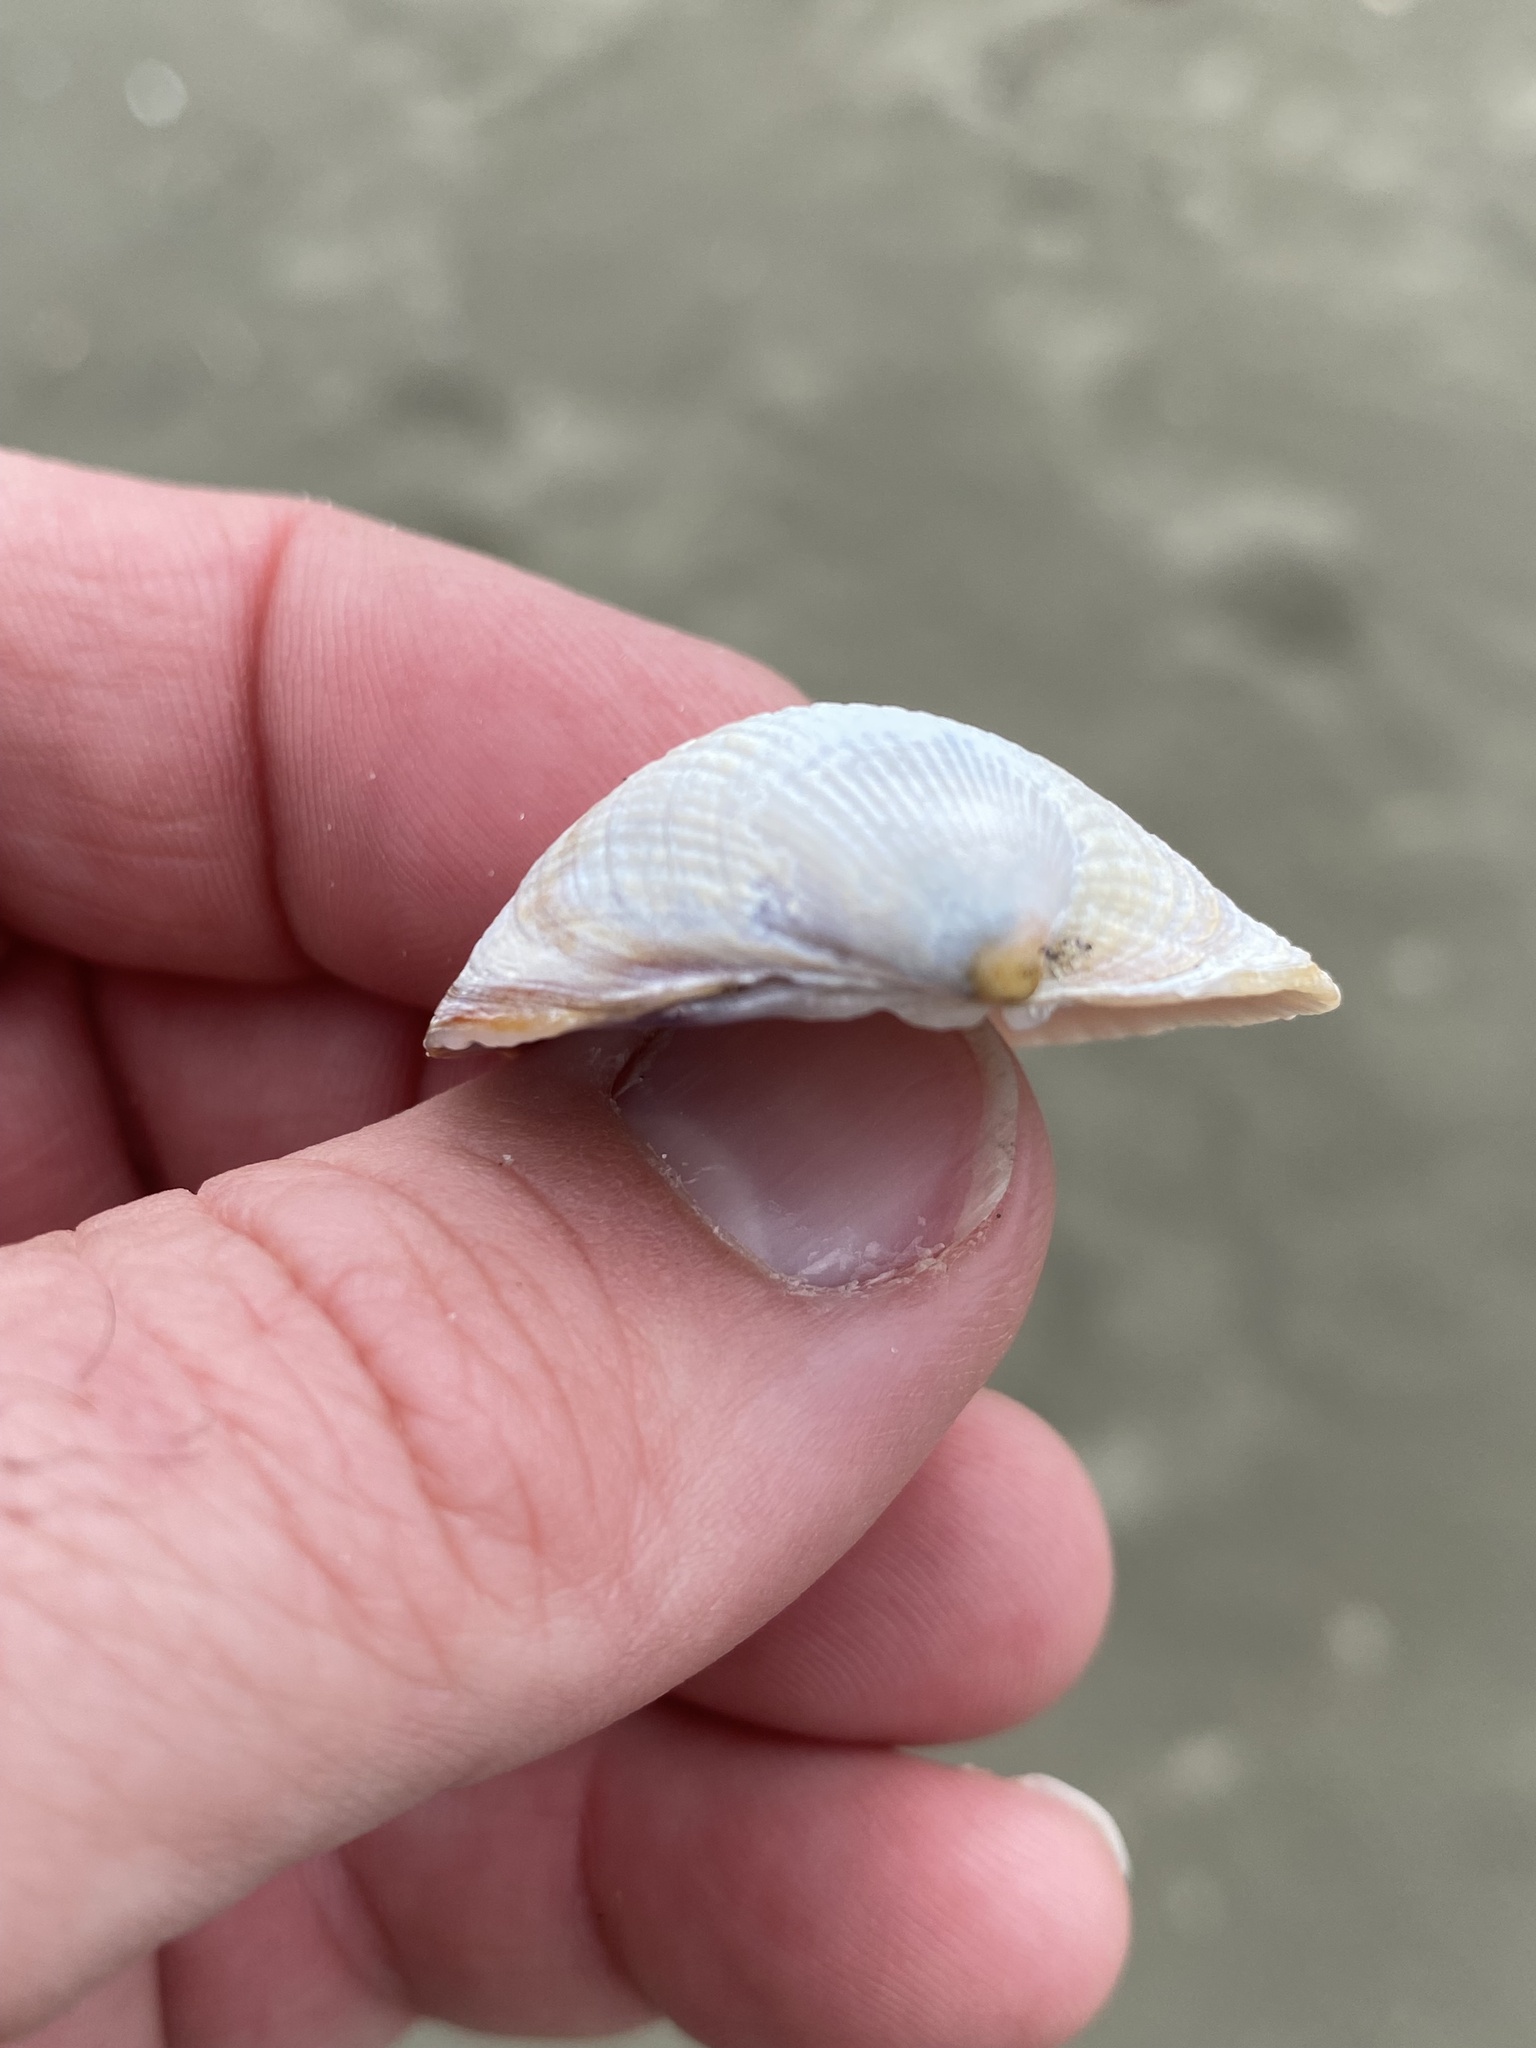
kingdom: Animalia
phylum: Mollusca
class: Bivalvia
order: Venerida
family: Veneridae
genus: Austrovenus
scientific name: Austrovenus stutchburyi
